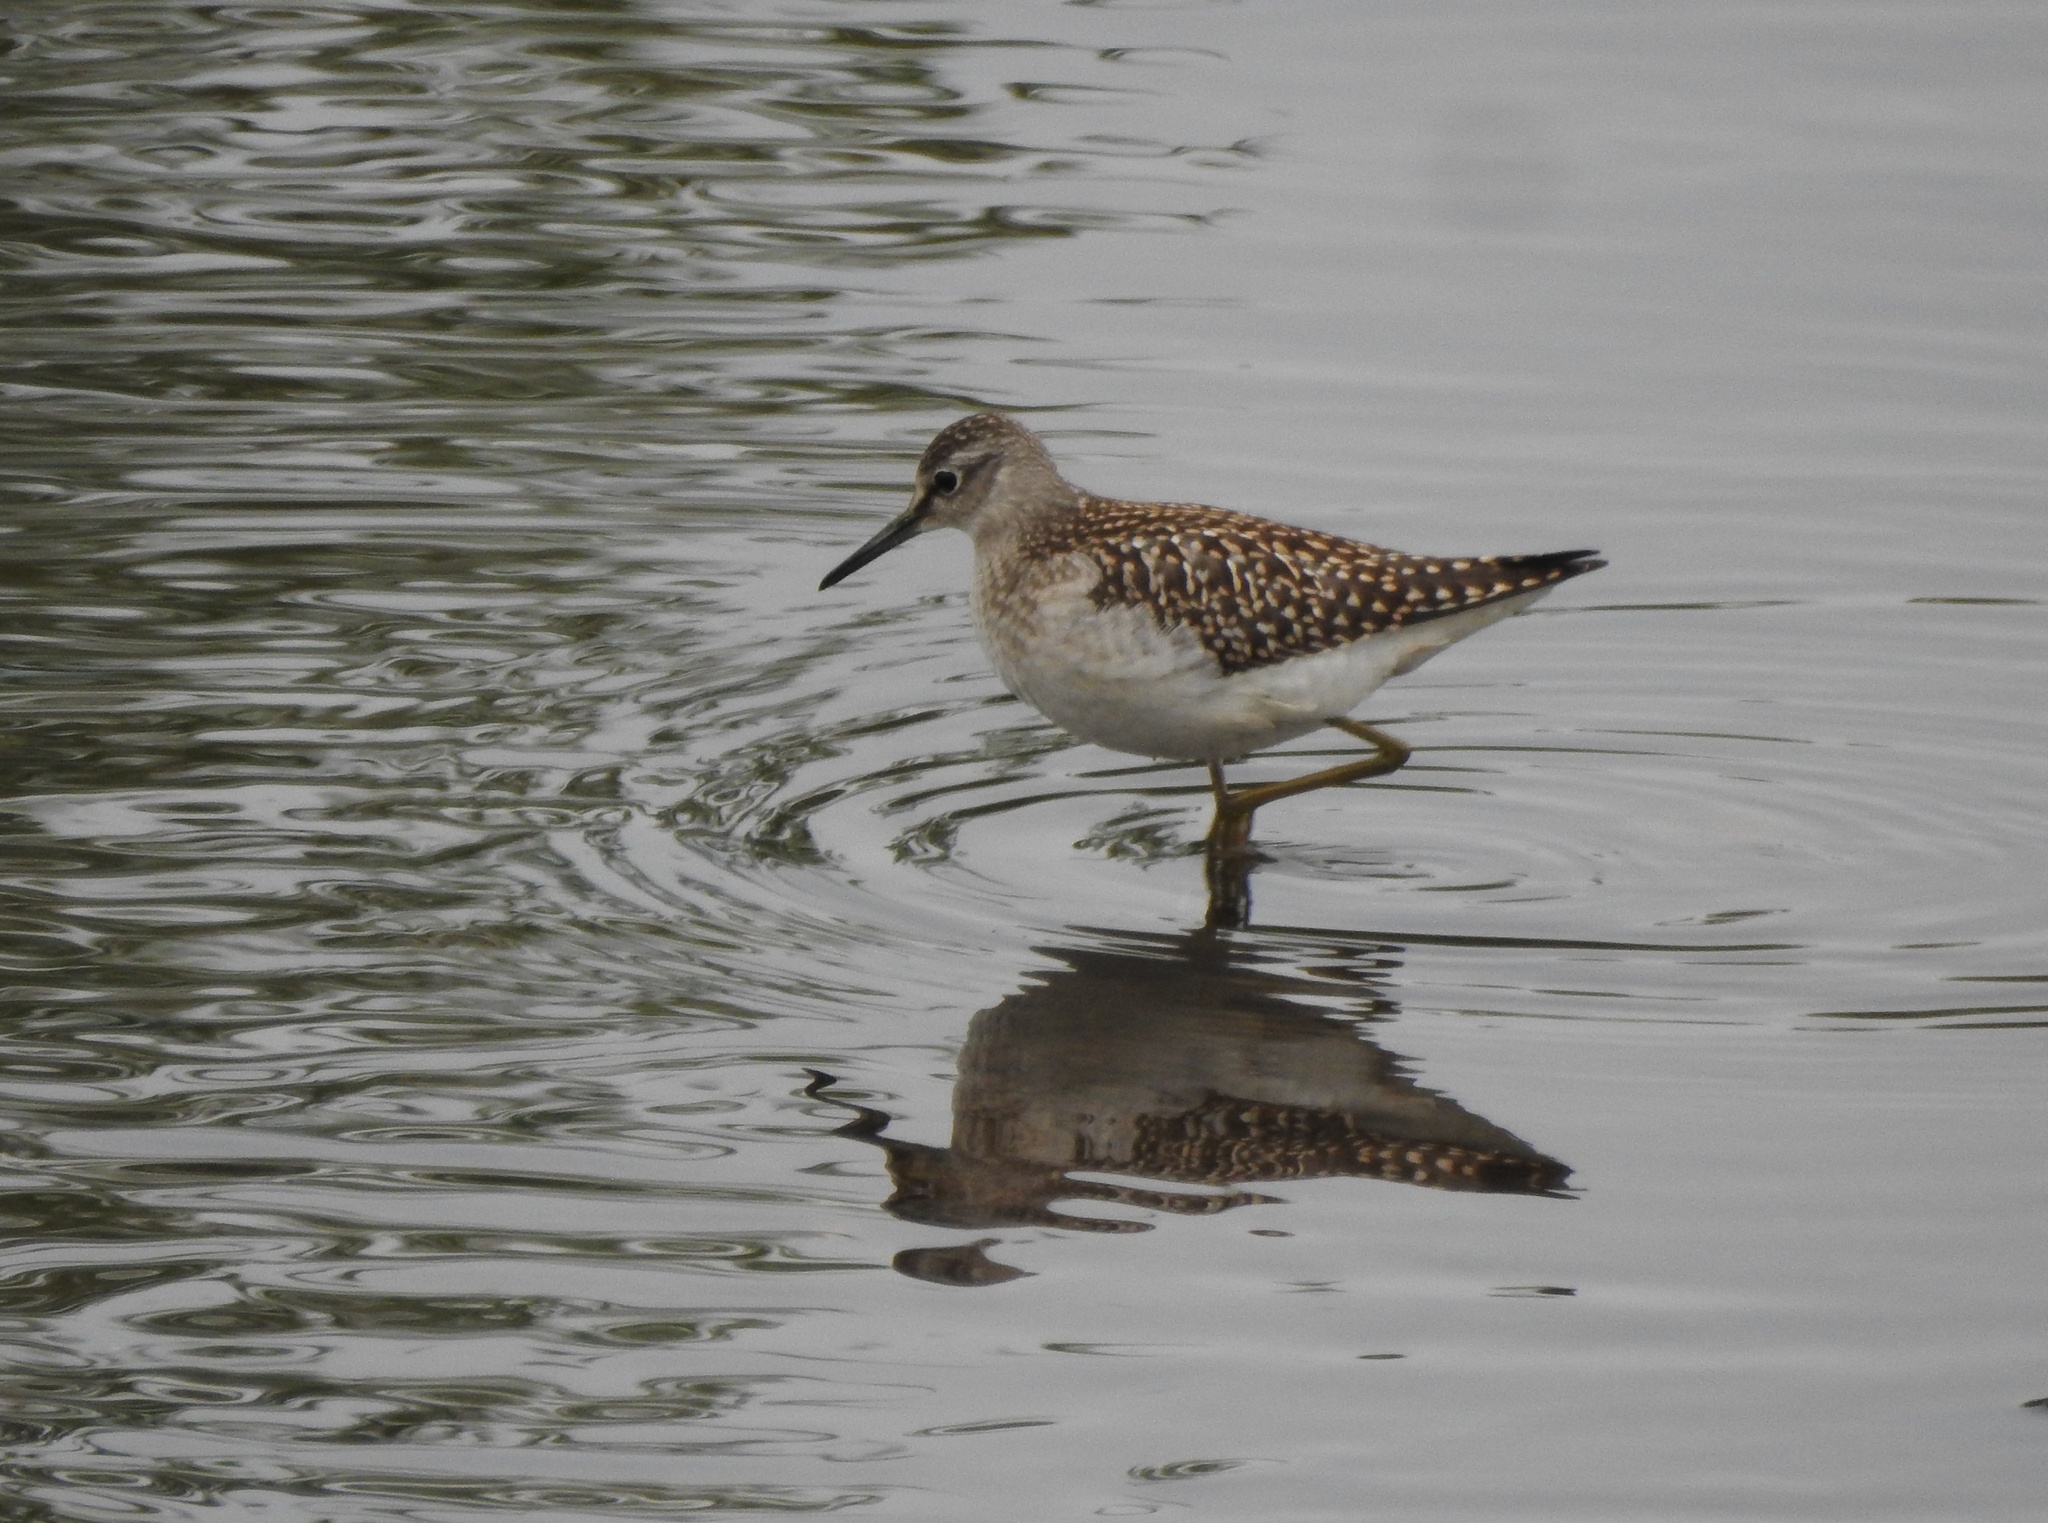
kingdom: Animalia
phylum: Chordata
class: Aves
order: Charadriiformes
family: Scolopacidae
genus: Tringa
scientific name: Tringa glareola
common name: Wood sandpiper
